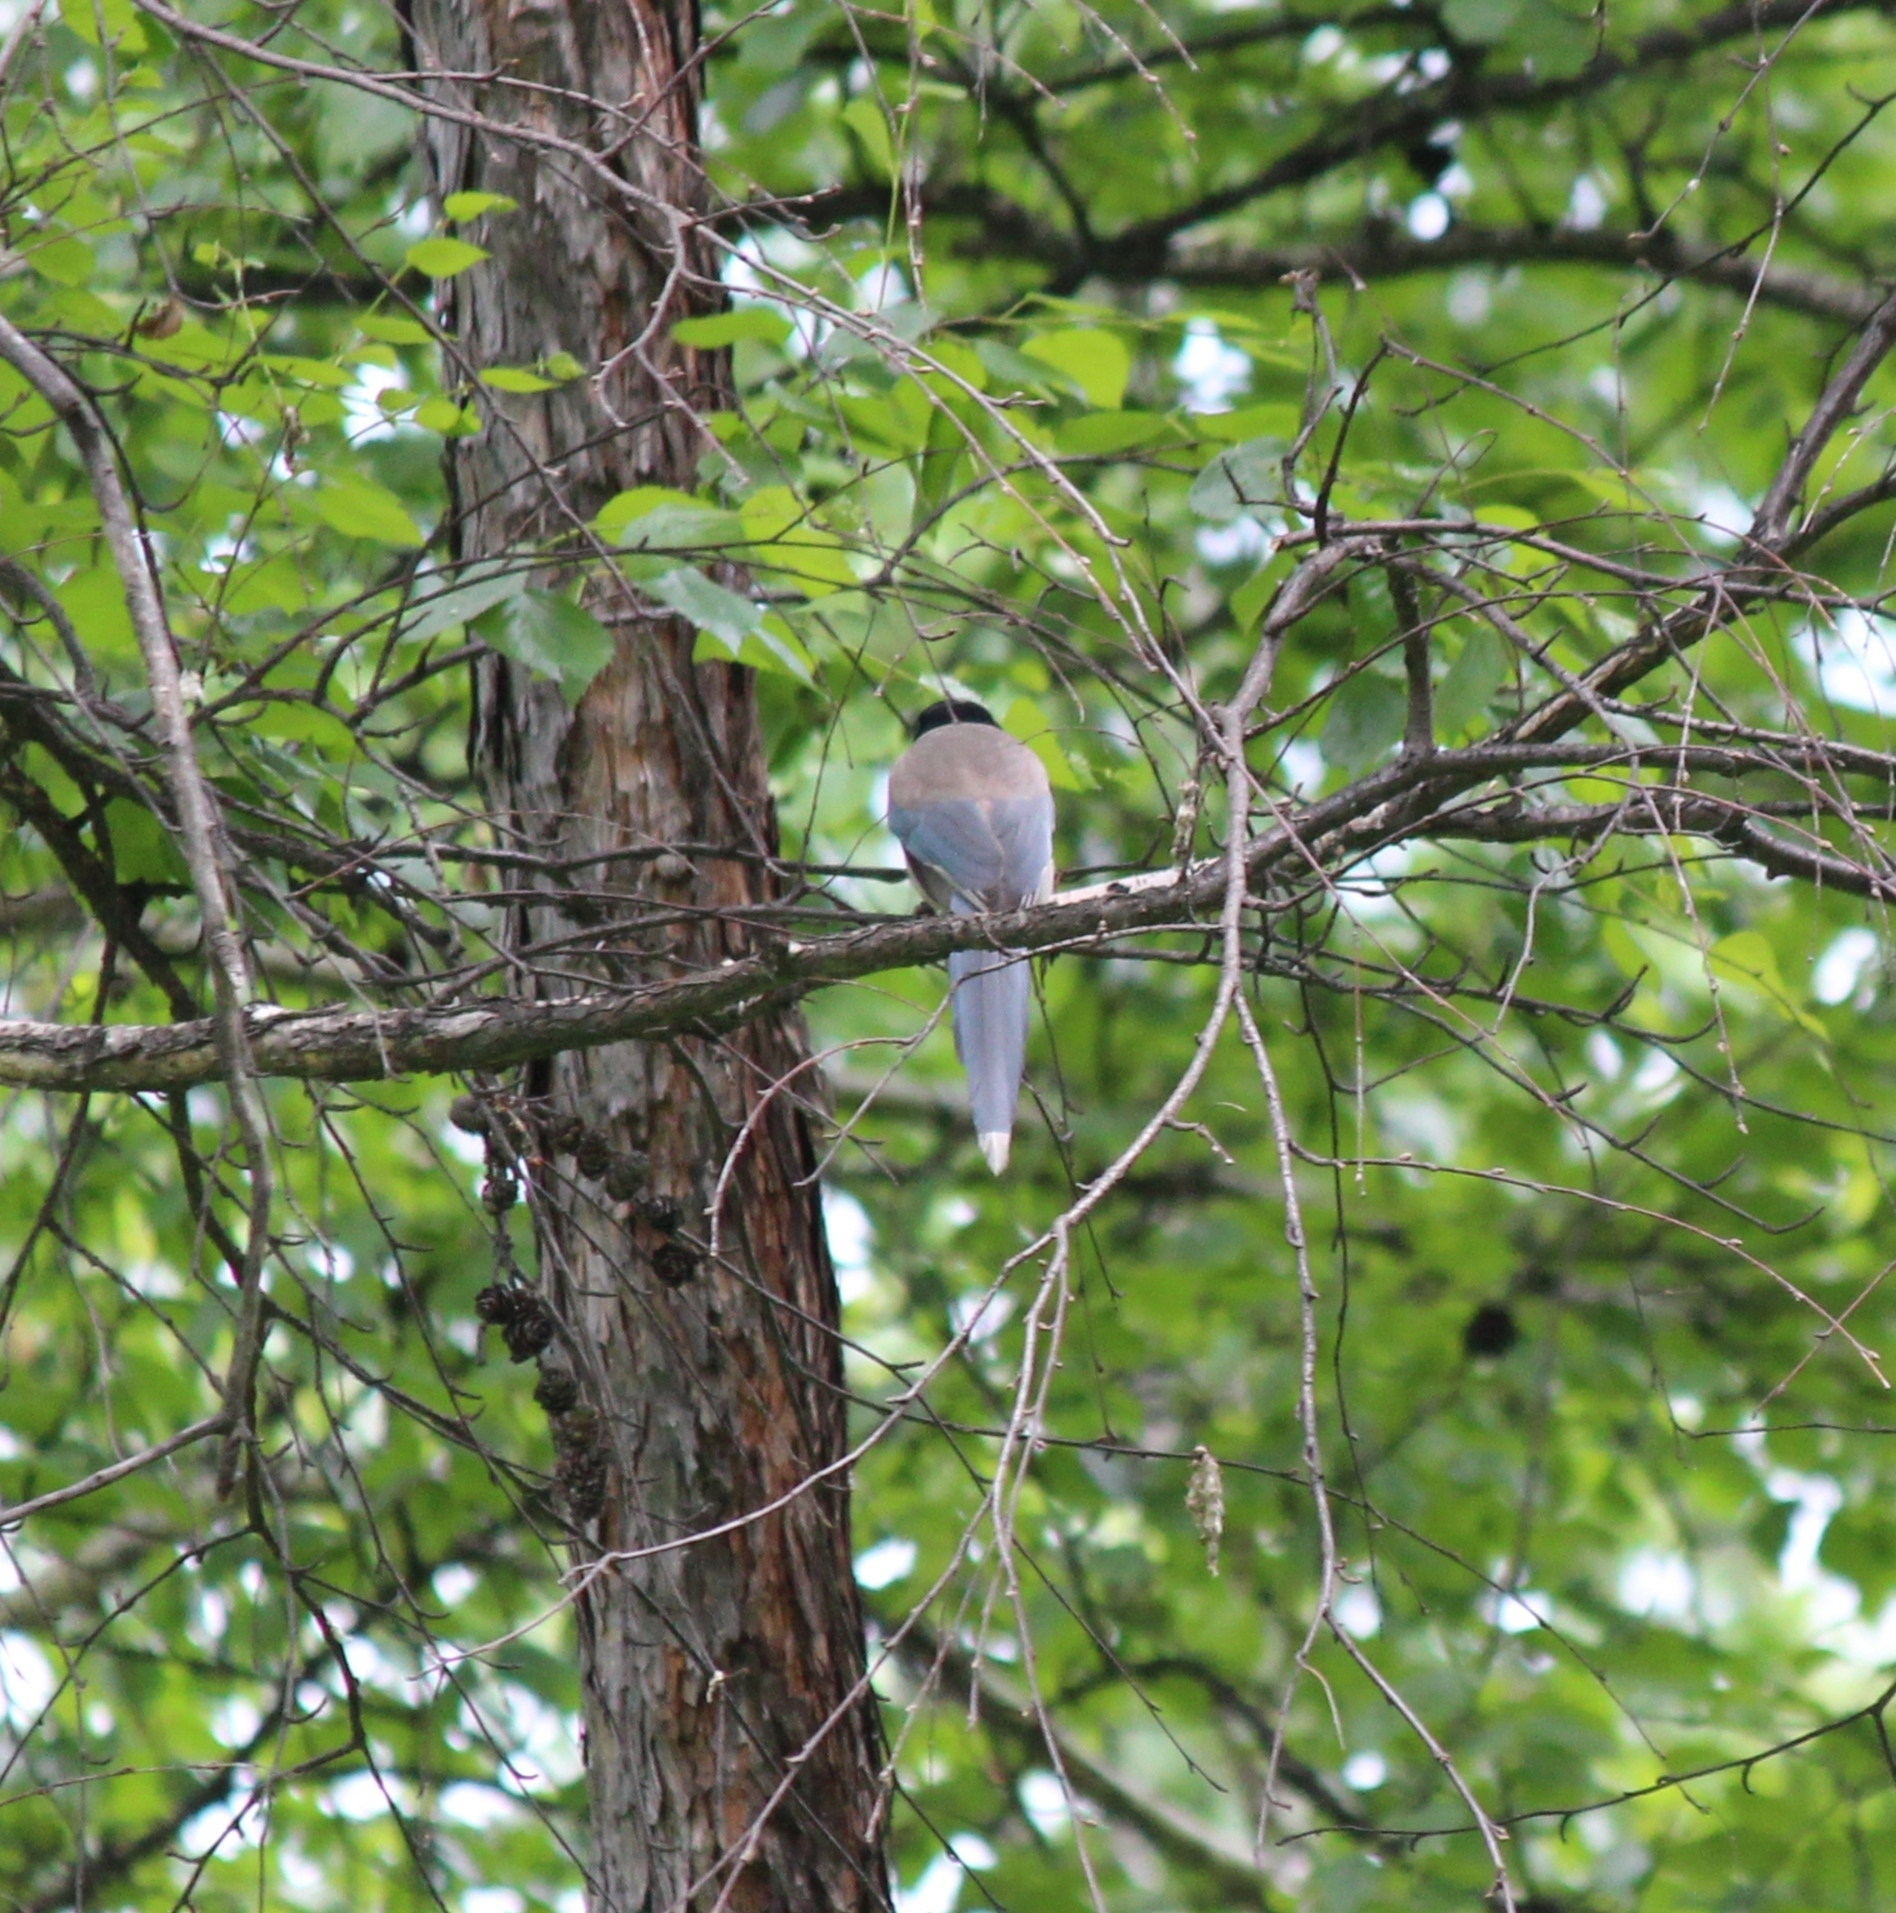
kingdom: Animalia
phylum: Chordata
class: Aves
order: Passeriformes
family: Corvidae
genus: Cyanopica
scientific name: Cyanopica cyanus
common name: Azure-winged magpie
